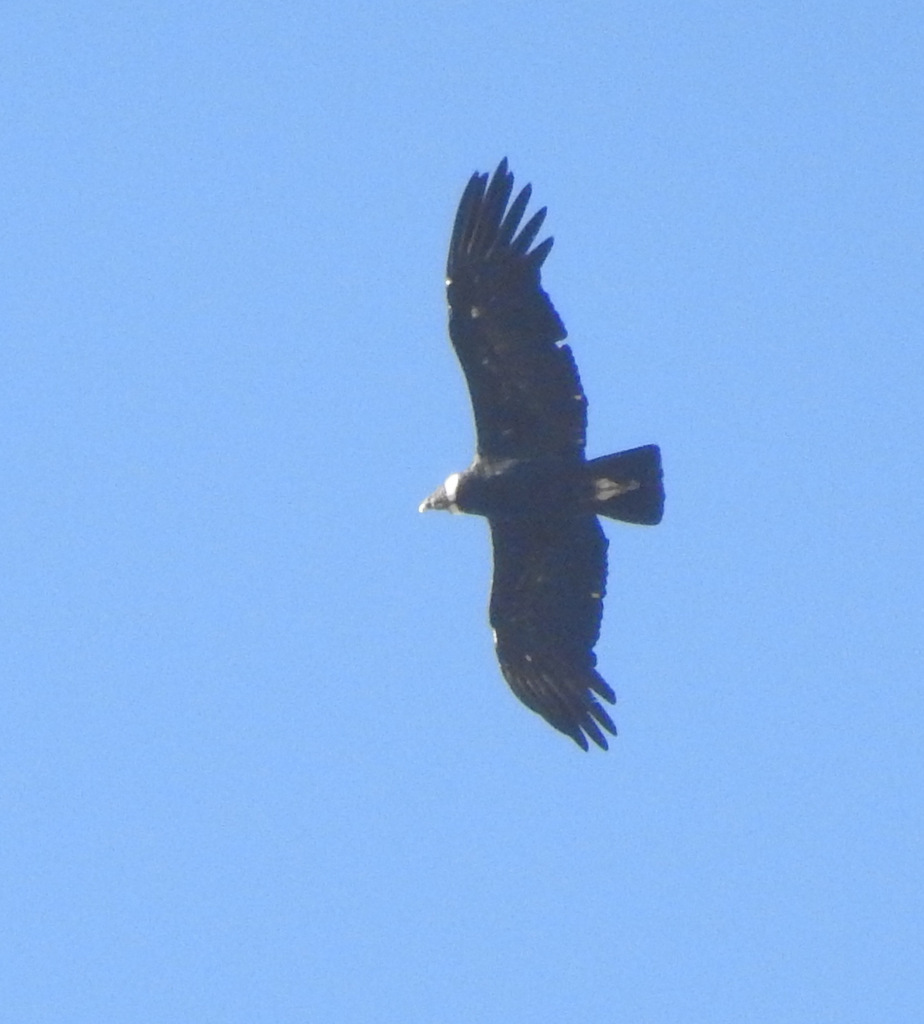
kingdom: Animalia
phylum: Chordata
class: Aves
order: Accipitriformes
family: Cathartidae
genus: Vultur
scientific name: Vultur gryphus
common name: Andean condor
